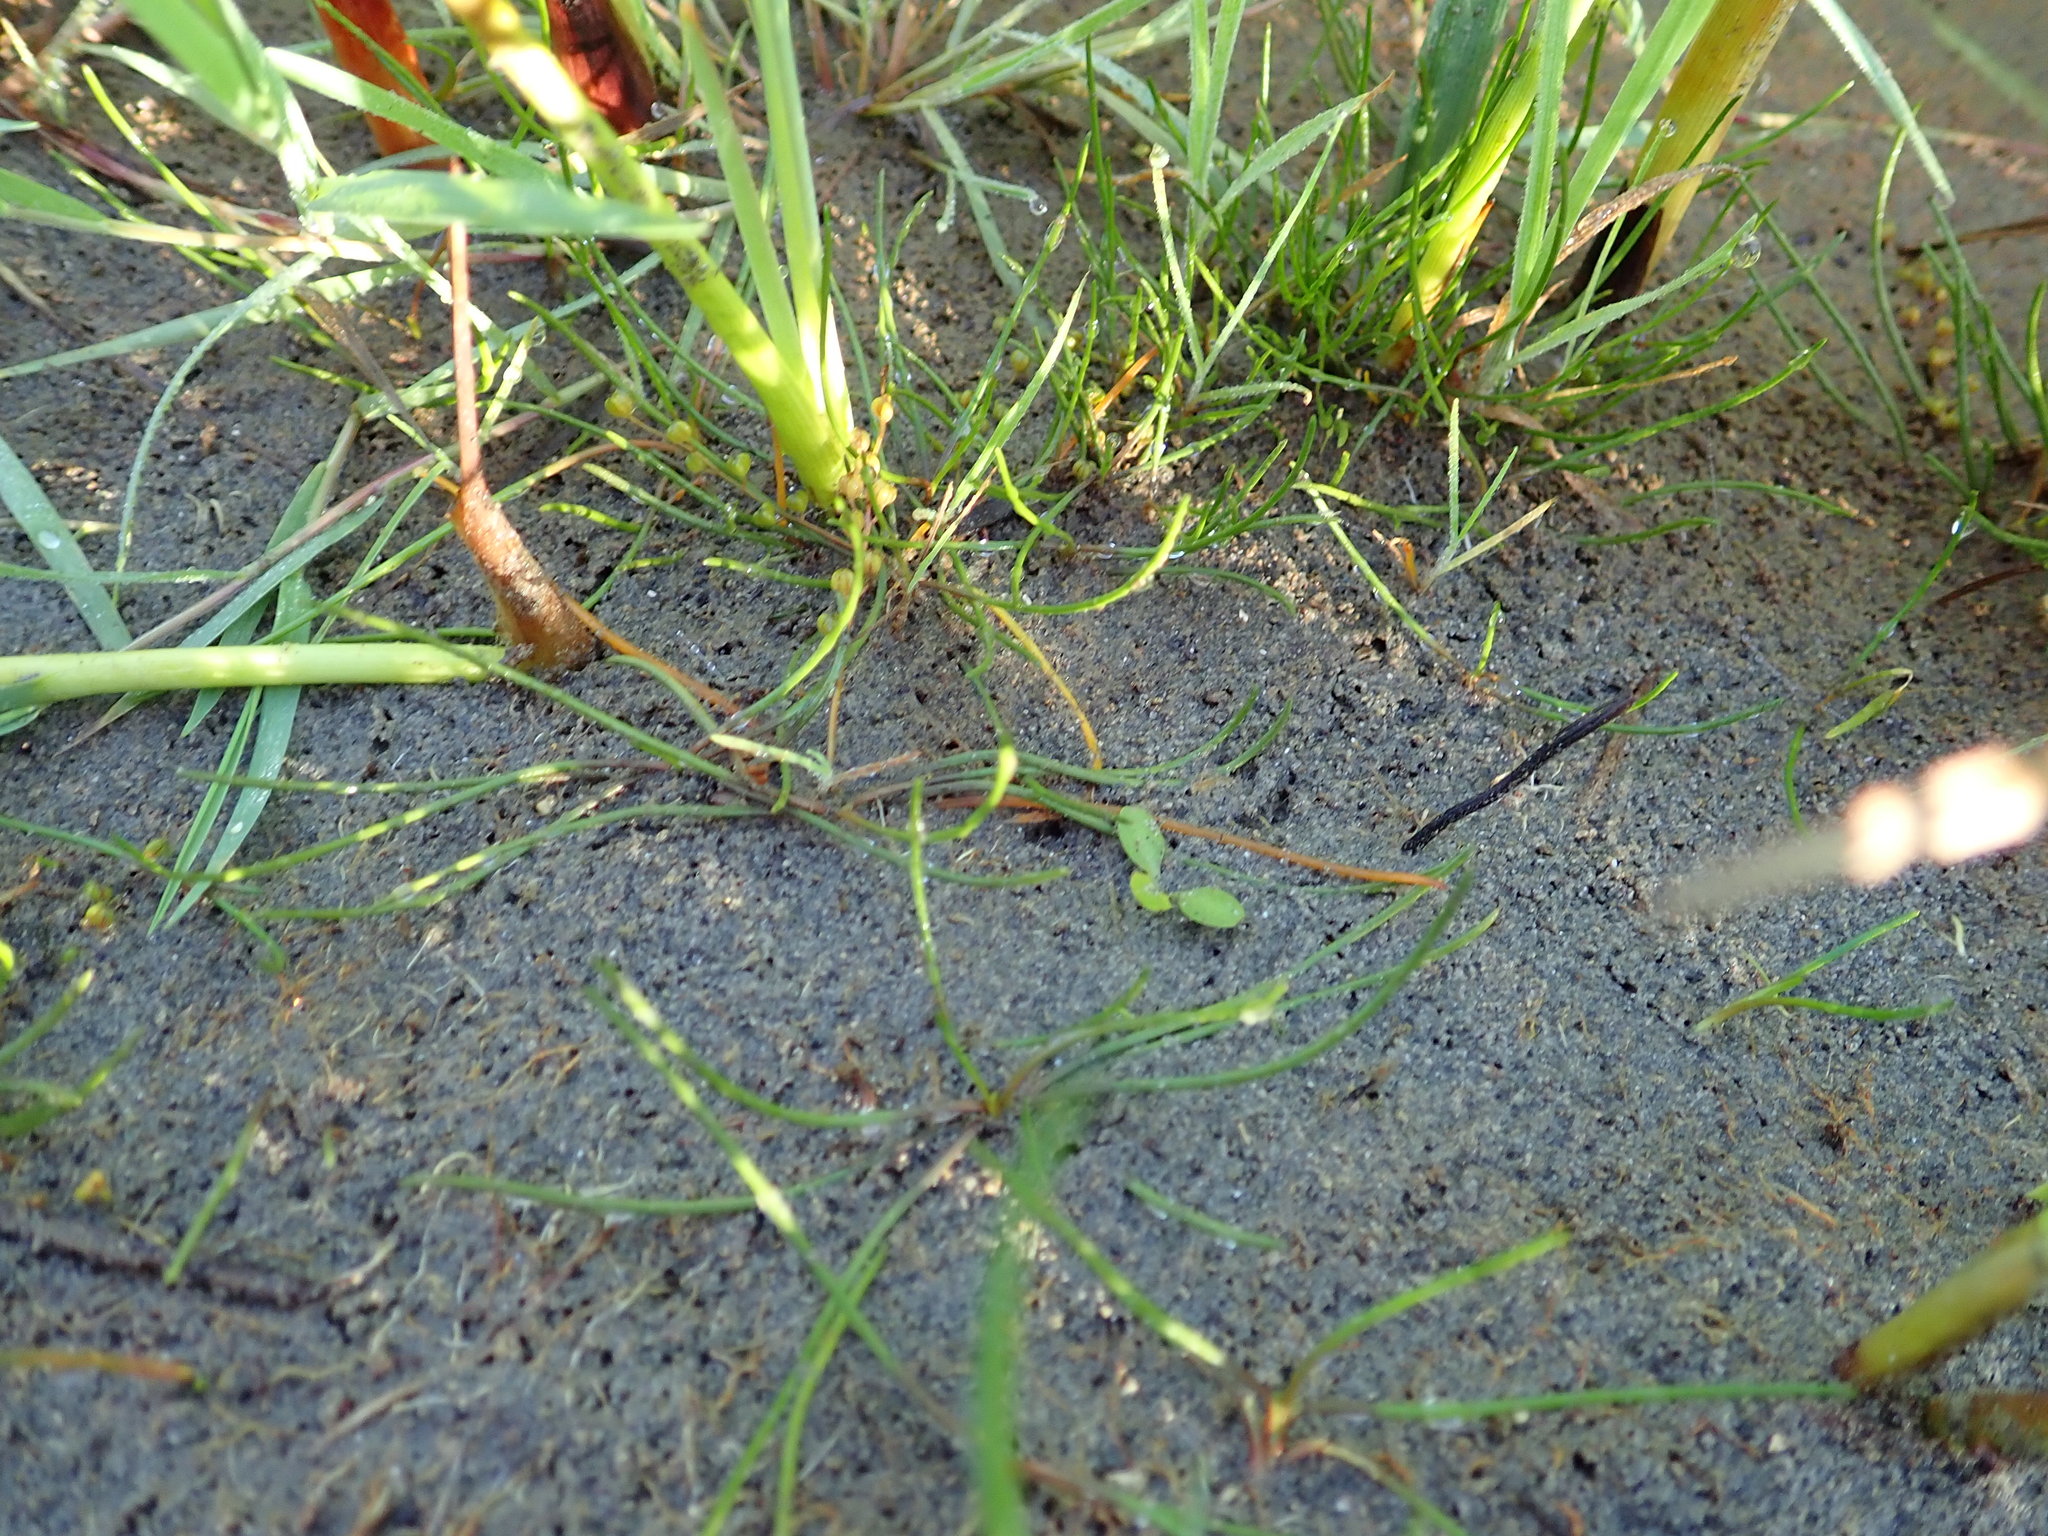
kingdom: Plantae
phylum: Tracheophyta
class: Liliopsida
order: Alismatales
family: Juncaginaceae
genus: Triglochin
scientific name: Triglochin striata
